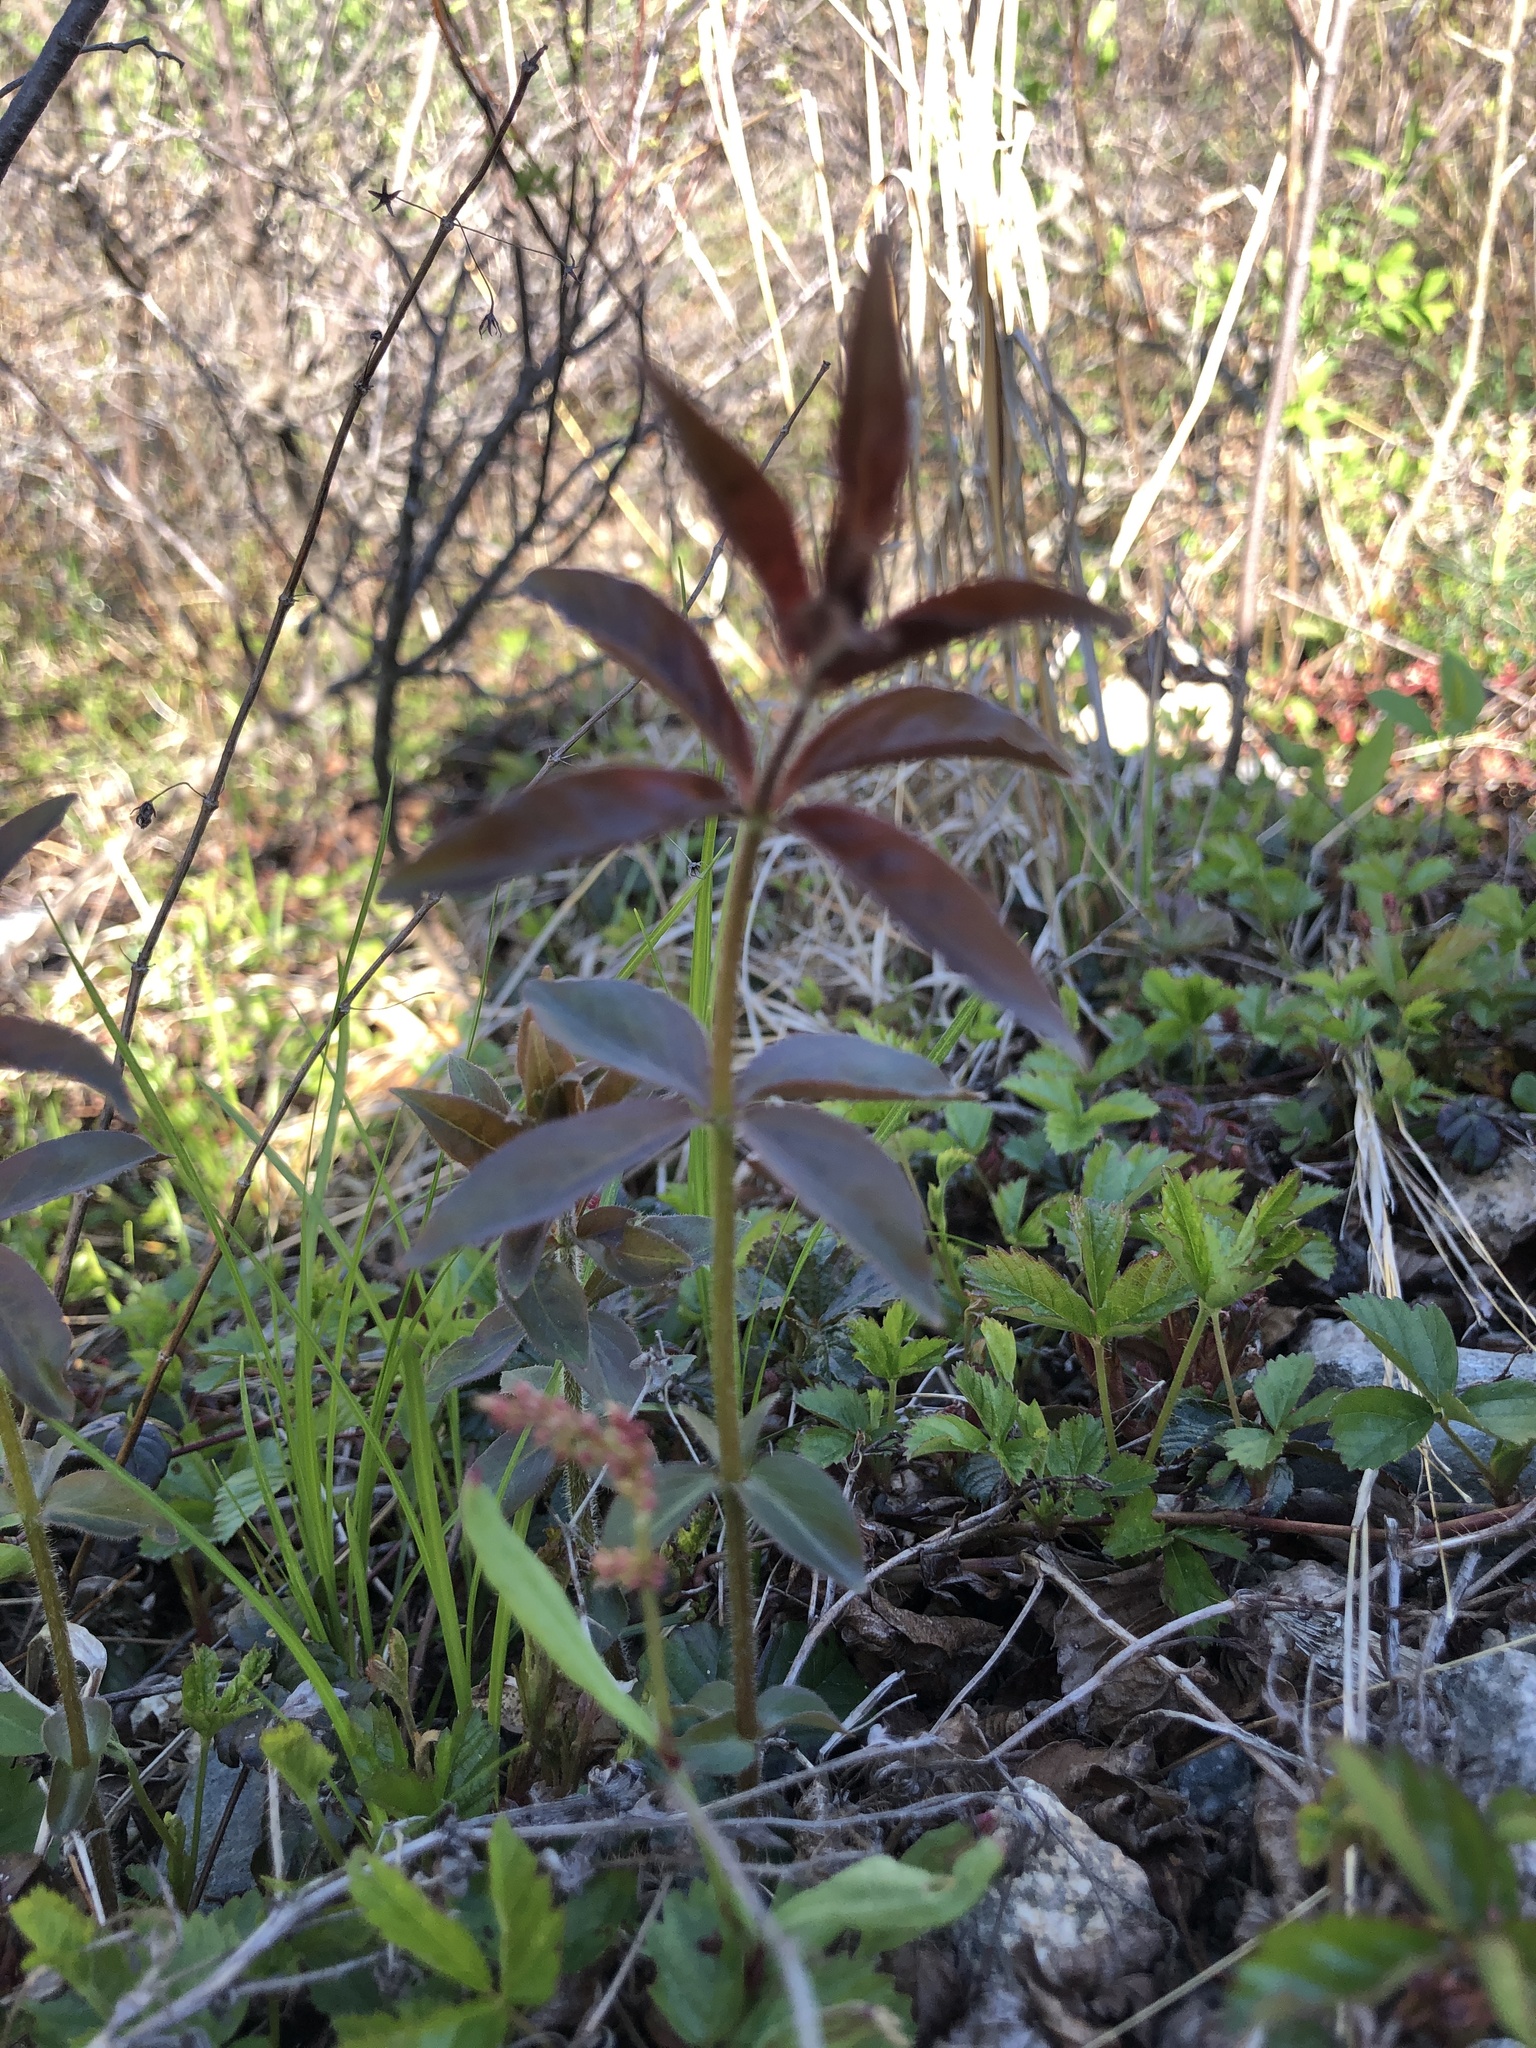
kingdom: Plantae
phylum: Tracheophyta
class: Magnoliopsida
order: Ericales
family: Primulaceae
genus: Lysimachia
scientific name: Lysimachia quadrifolia
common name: Whorled loosestrife
